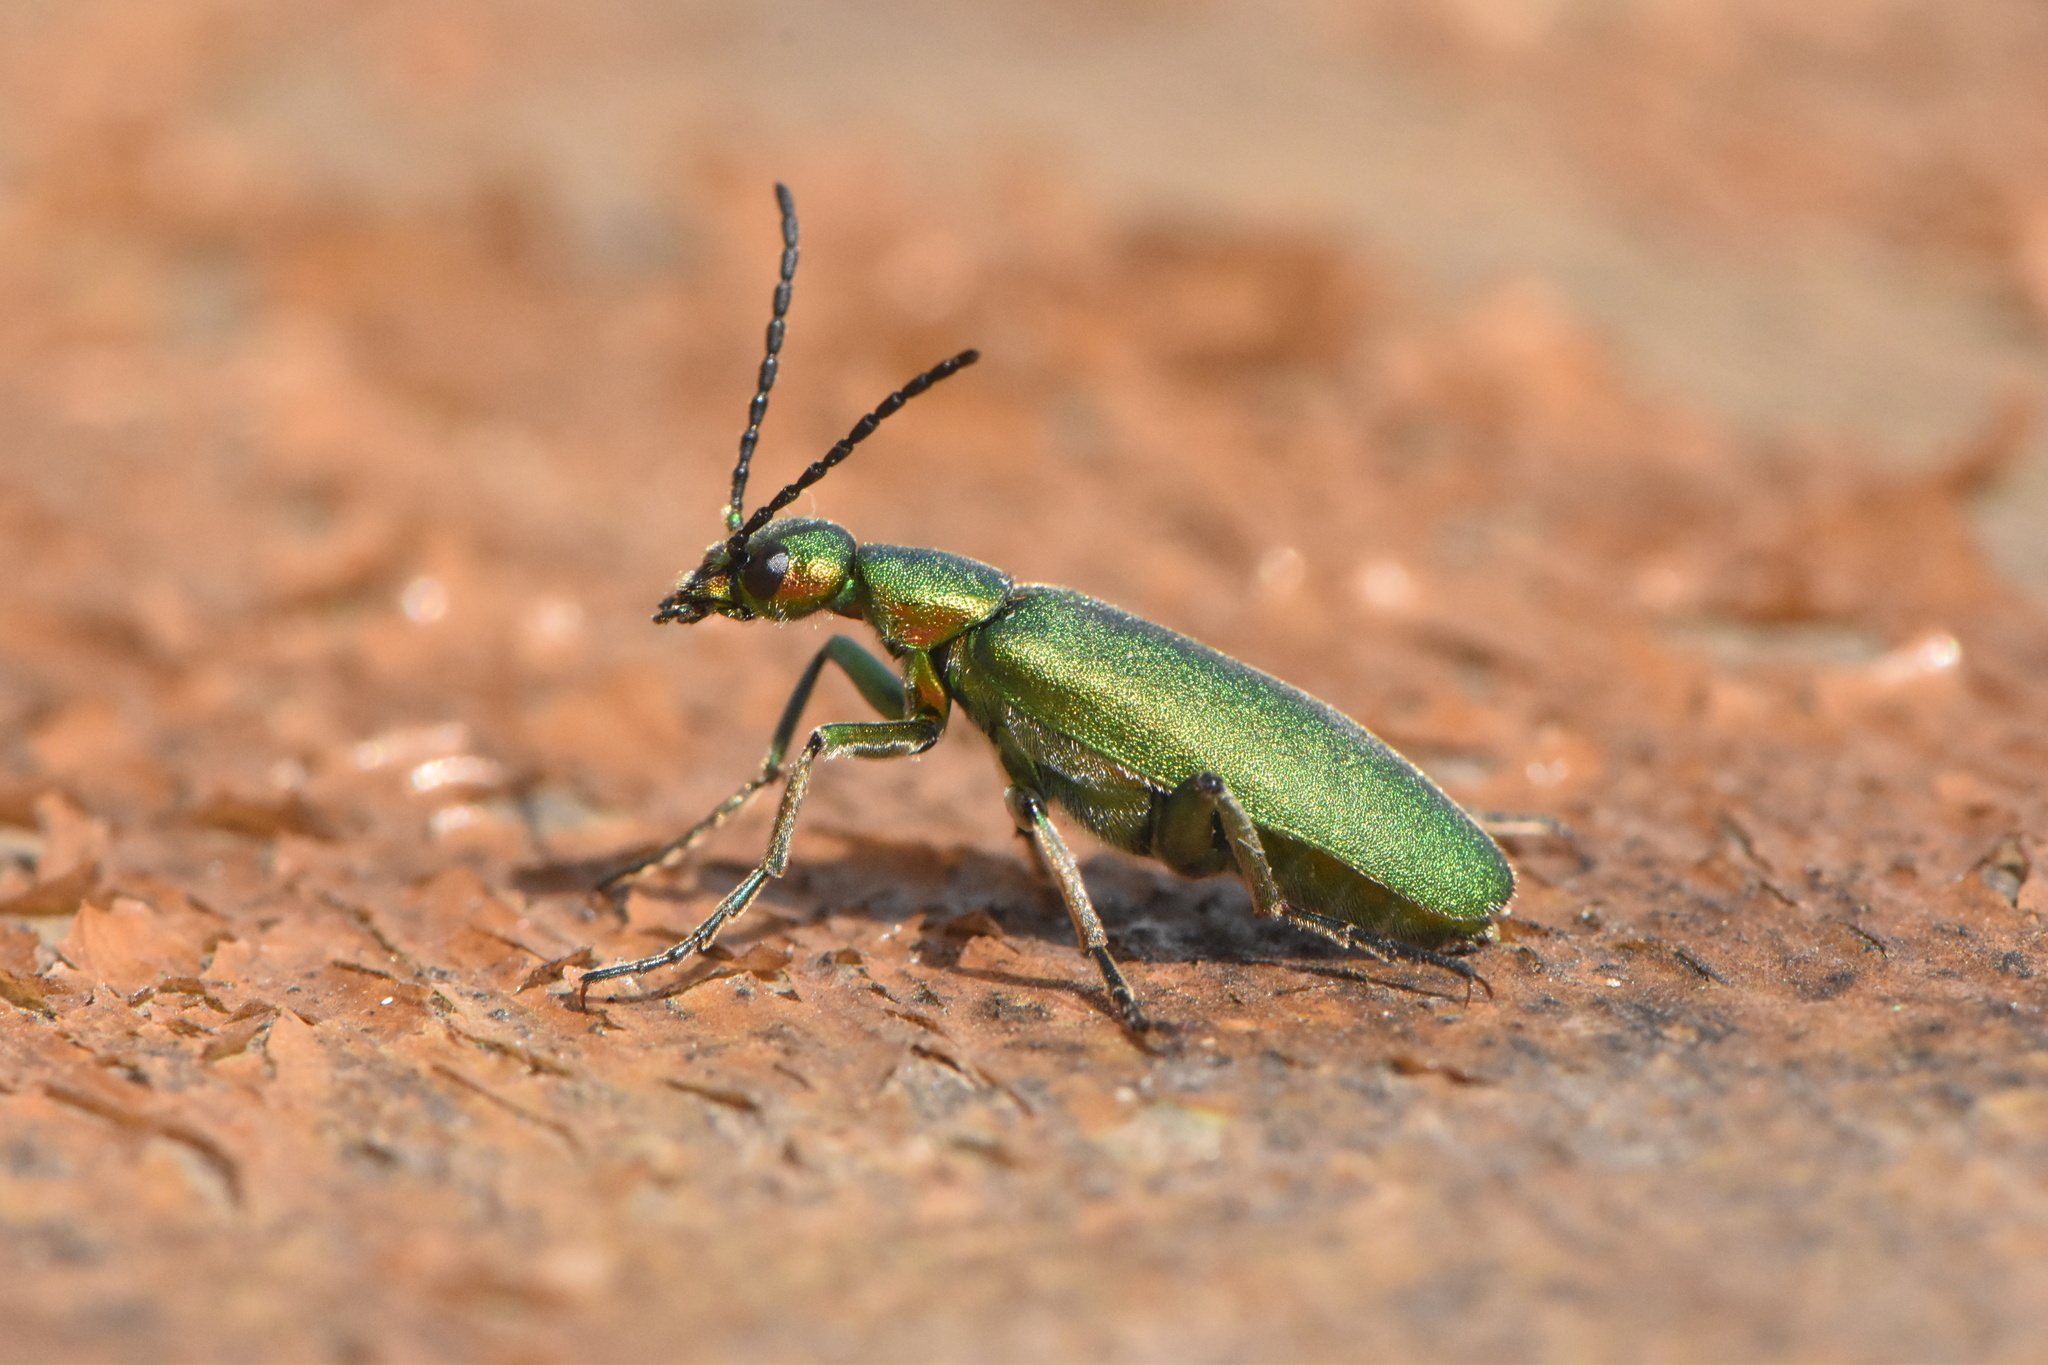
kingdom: Animalia
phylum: Arthropoda
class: Insecta
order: Coleoptera
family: Meloidae
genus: Lagorina
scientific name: Lagorina sericea
